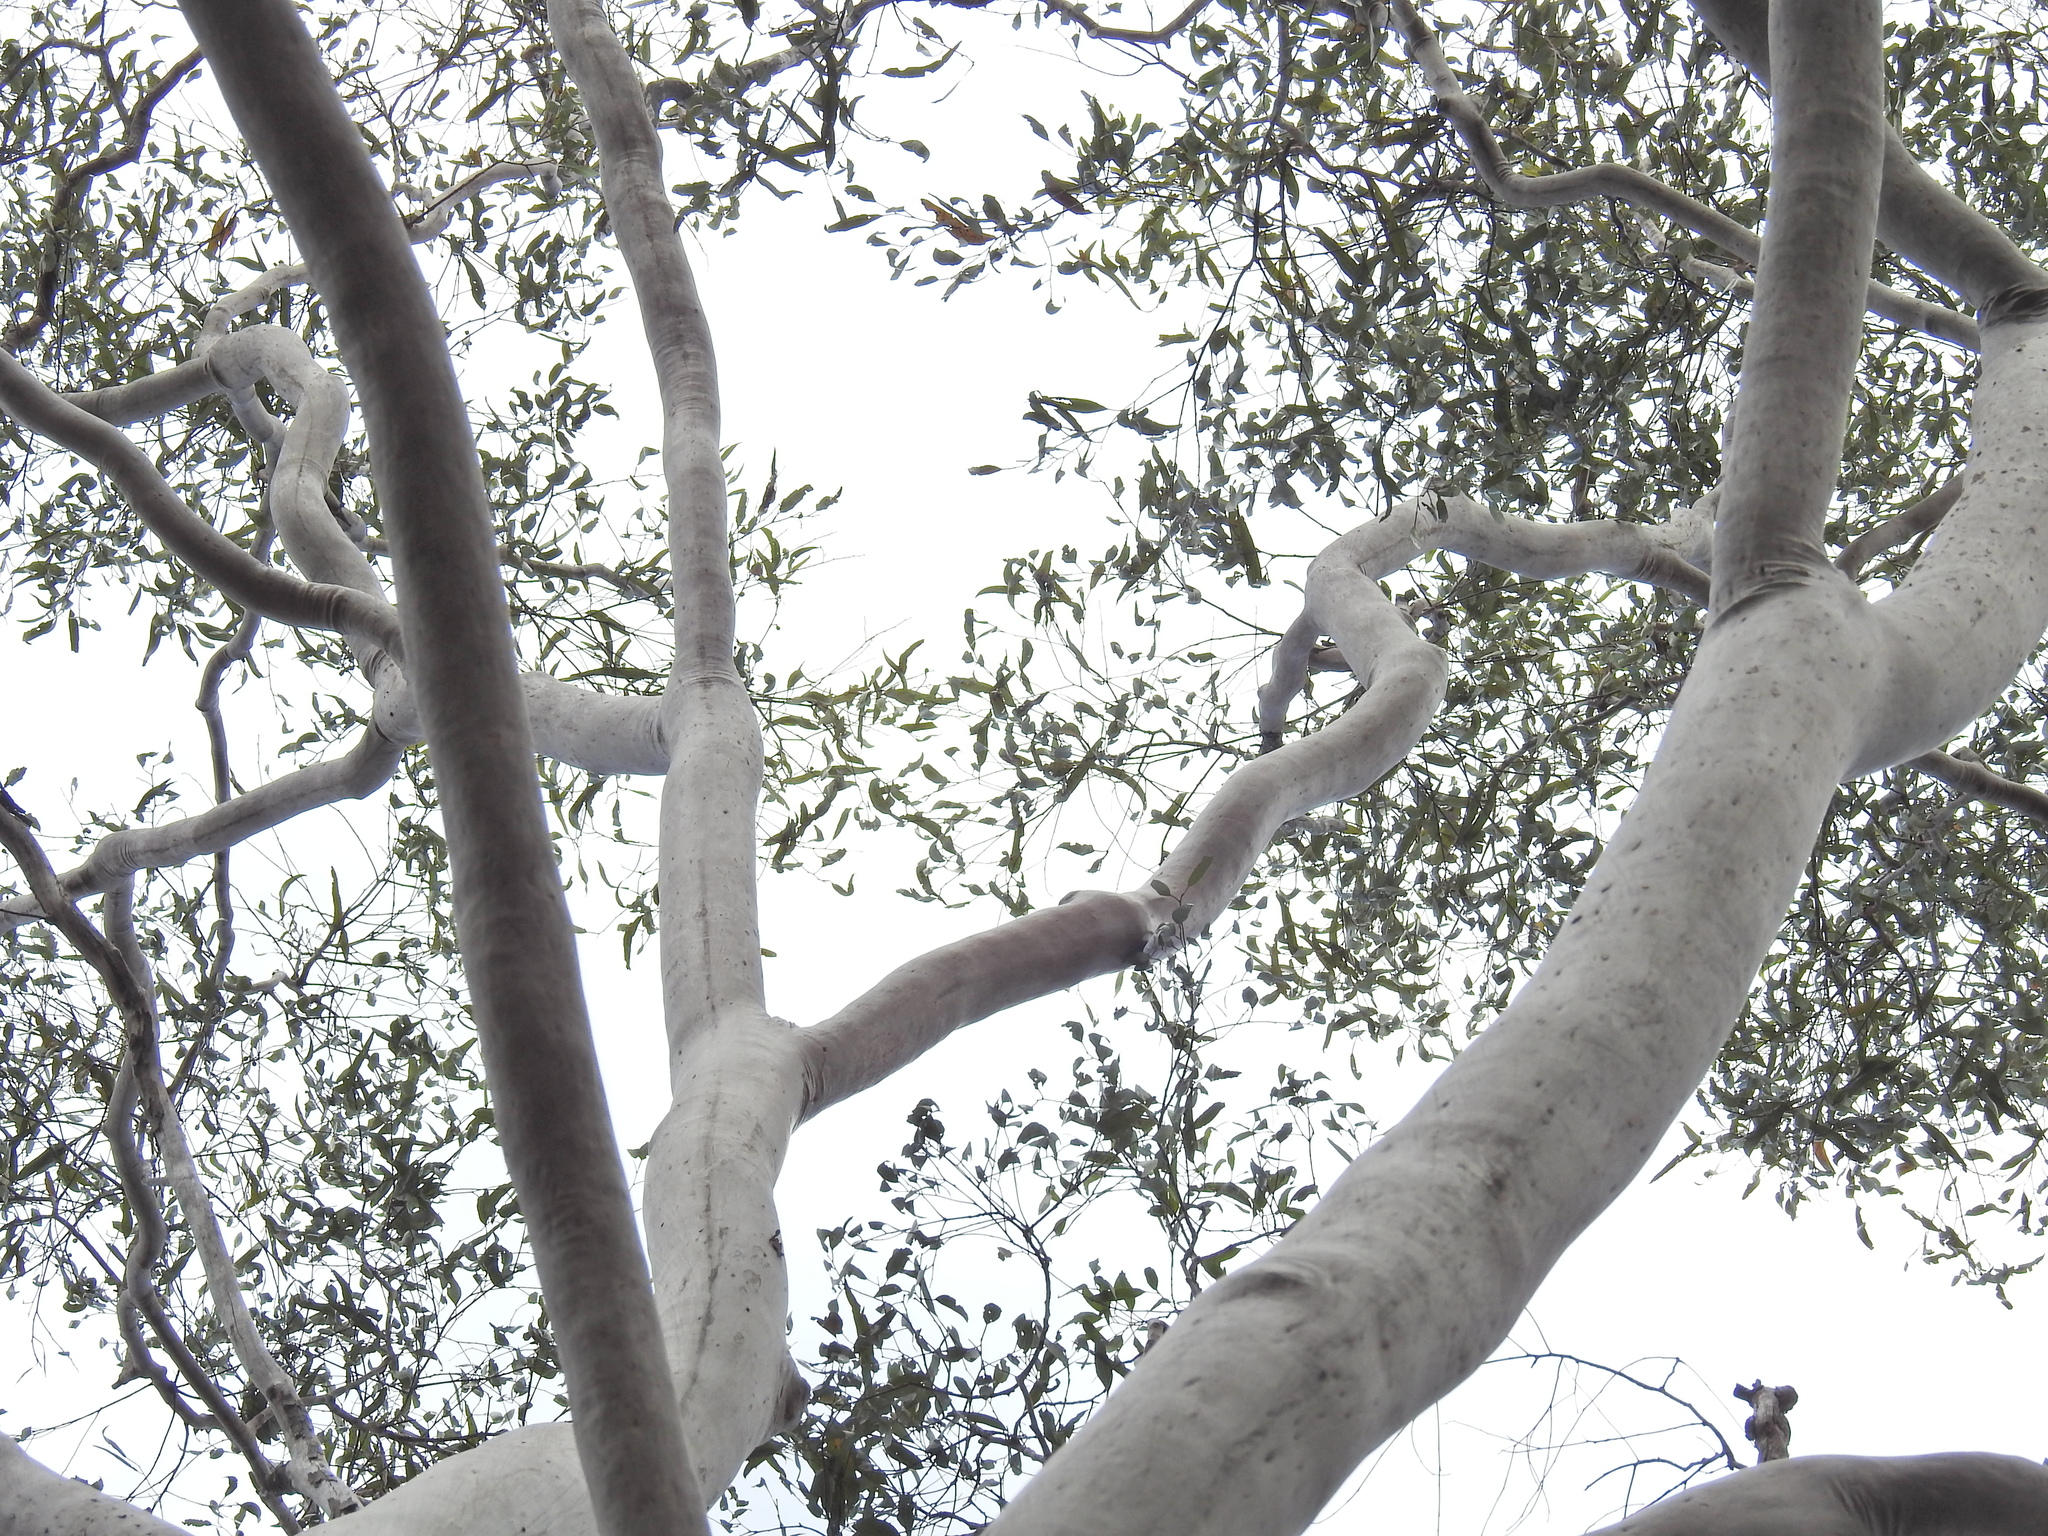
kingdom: Plantae
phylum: Tracheophyta
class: Magnoliopsida
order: Myrtales
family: Myrtaceae
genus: Corymbia
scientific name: Corymbia citriodora
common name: Lemonscented gum
